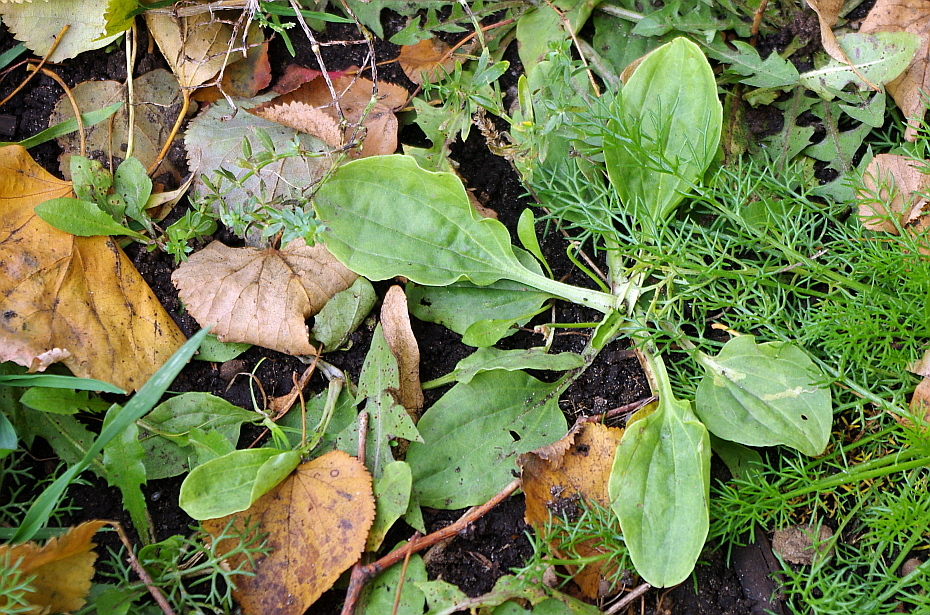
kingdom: Plantae
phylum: Tracheophyta
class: Magnoliopsida
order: Lamiales
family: Plantaginaceae
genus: Plantago
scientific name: Plantago major
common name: Common plantain
